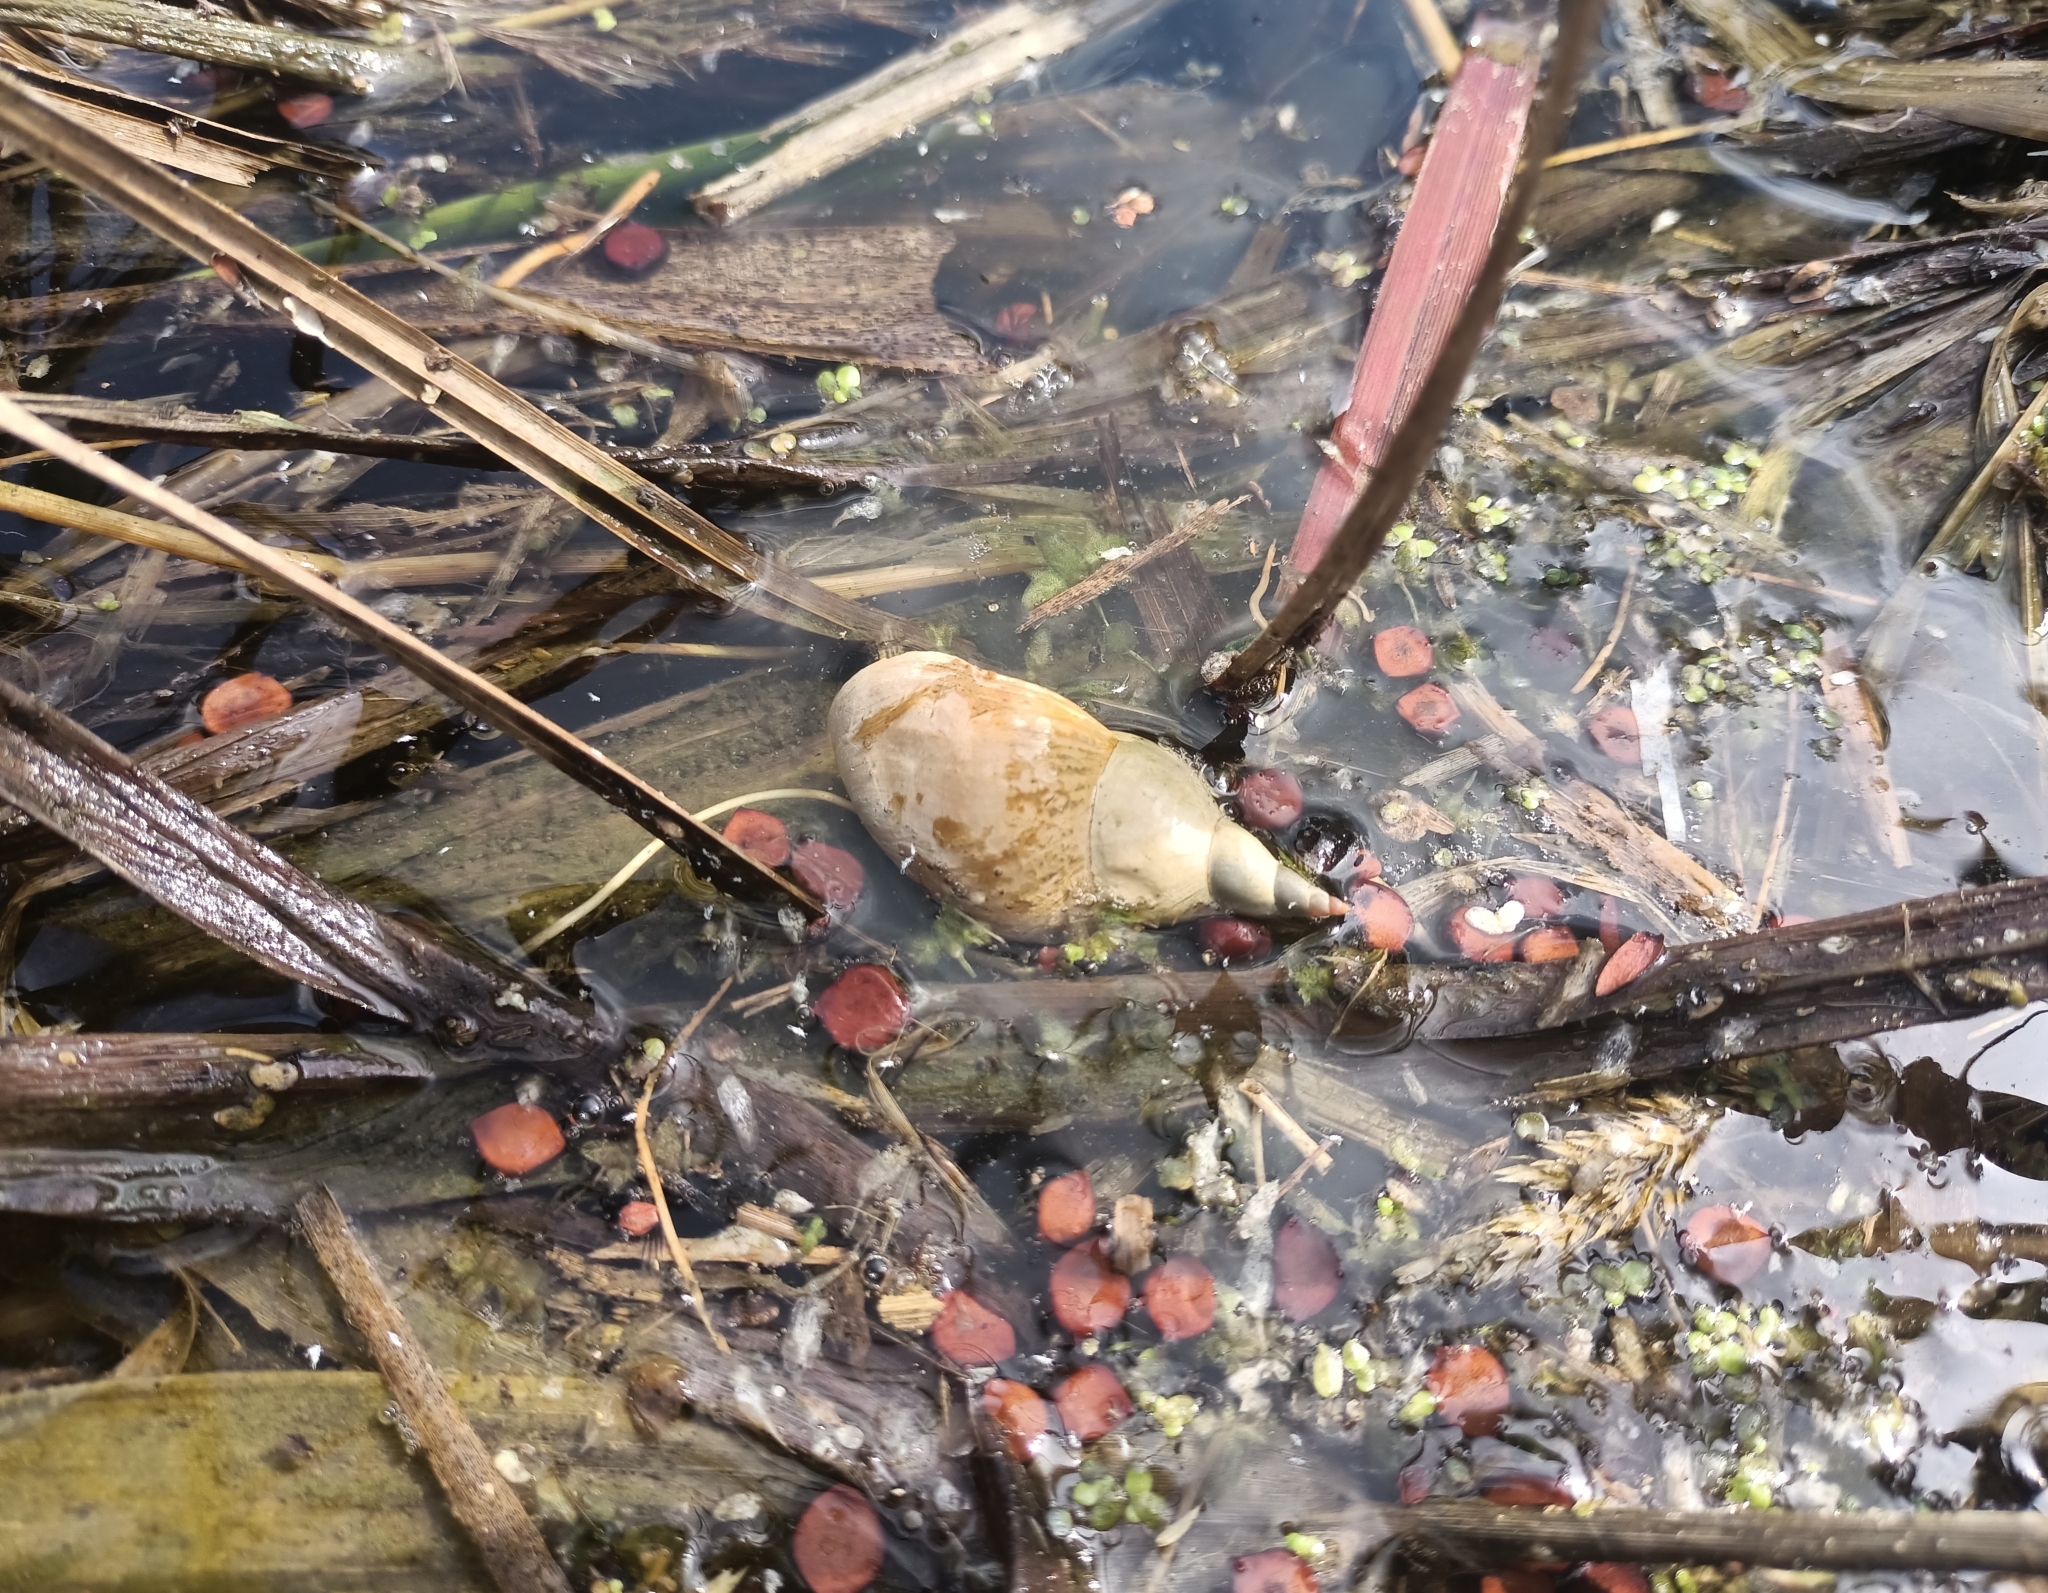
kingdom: Animalia
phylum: Mollusca
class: Gastropoda
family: Lymnaeidae
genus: Lymnaea
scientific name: Lymnaea stagnalis
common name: Great pond snail
